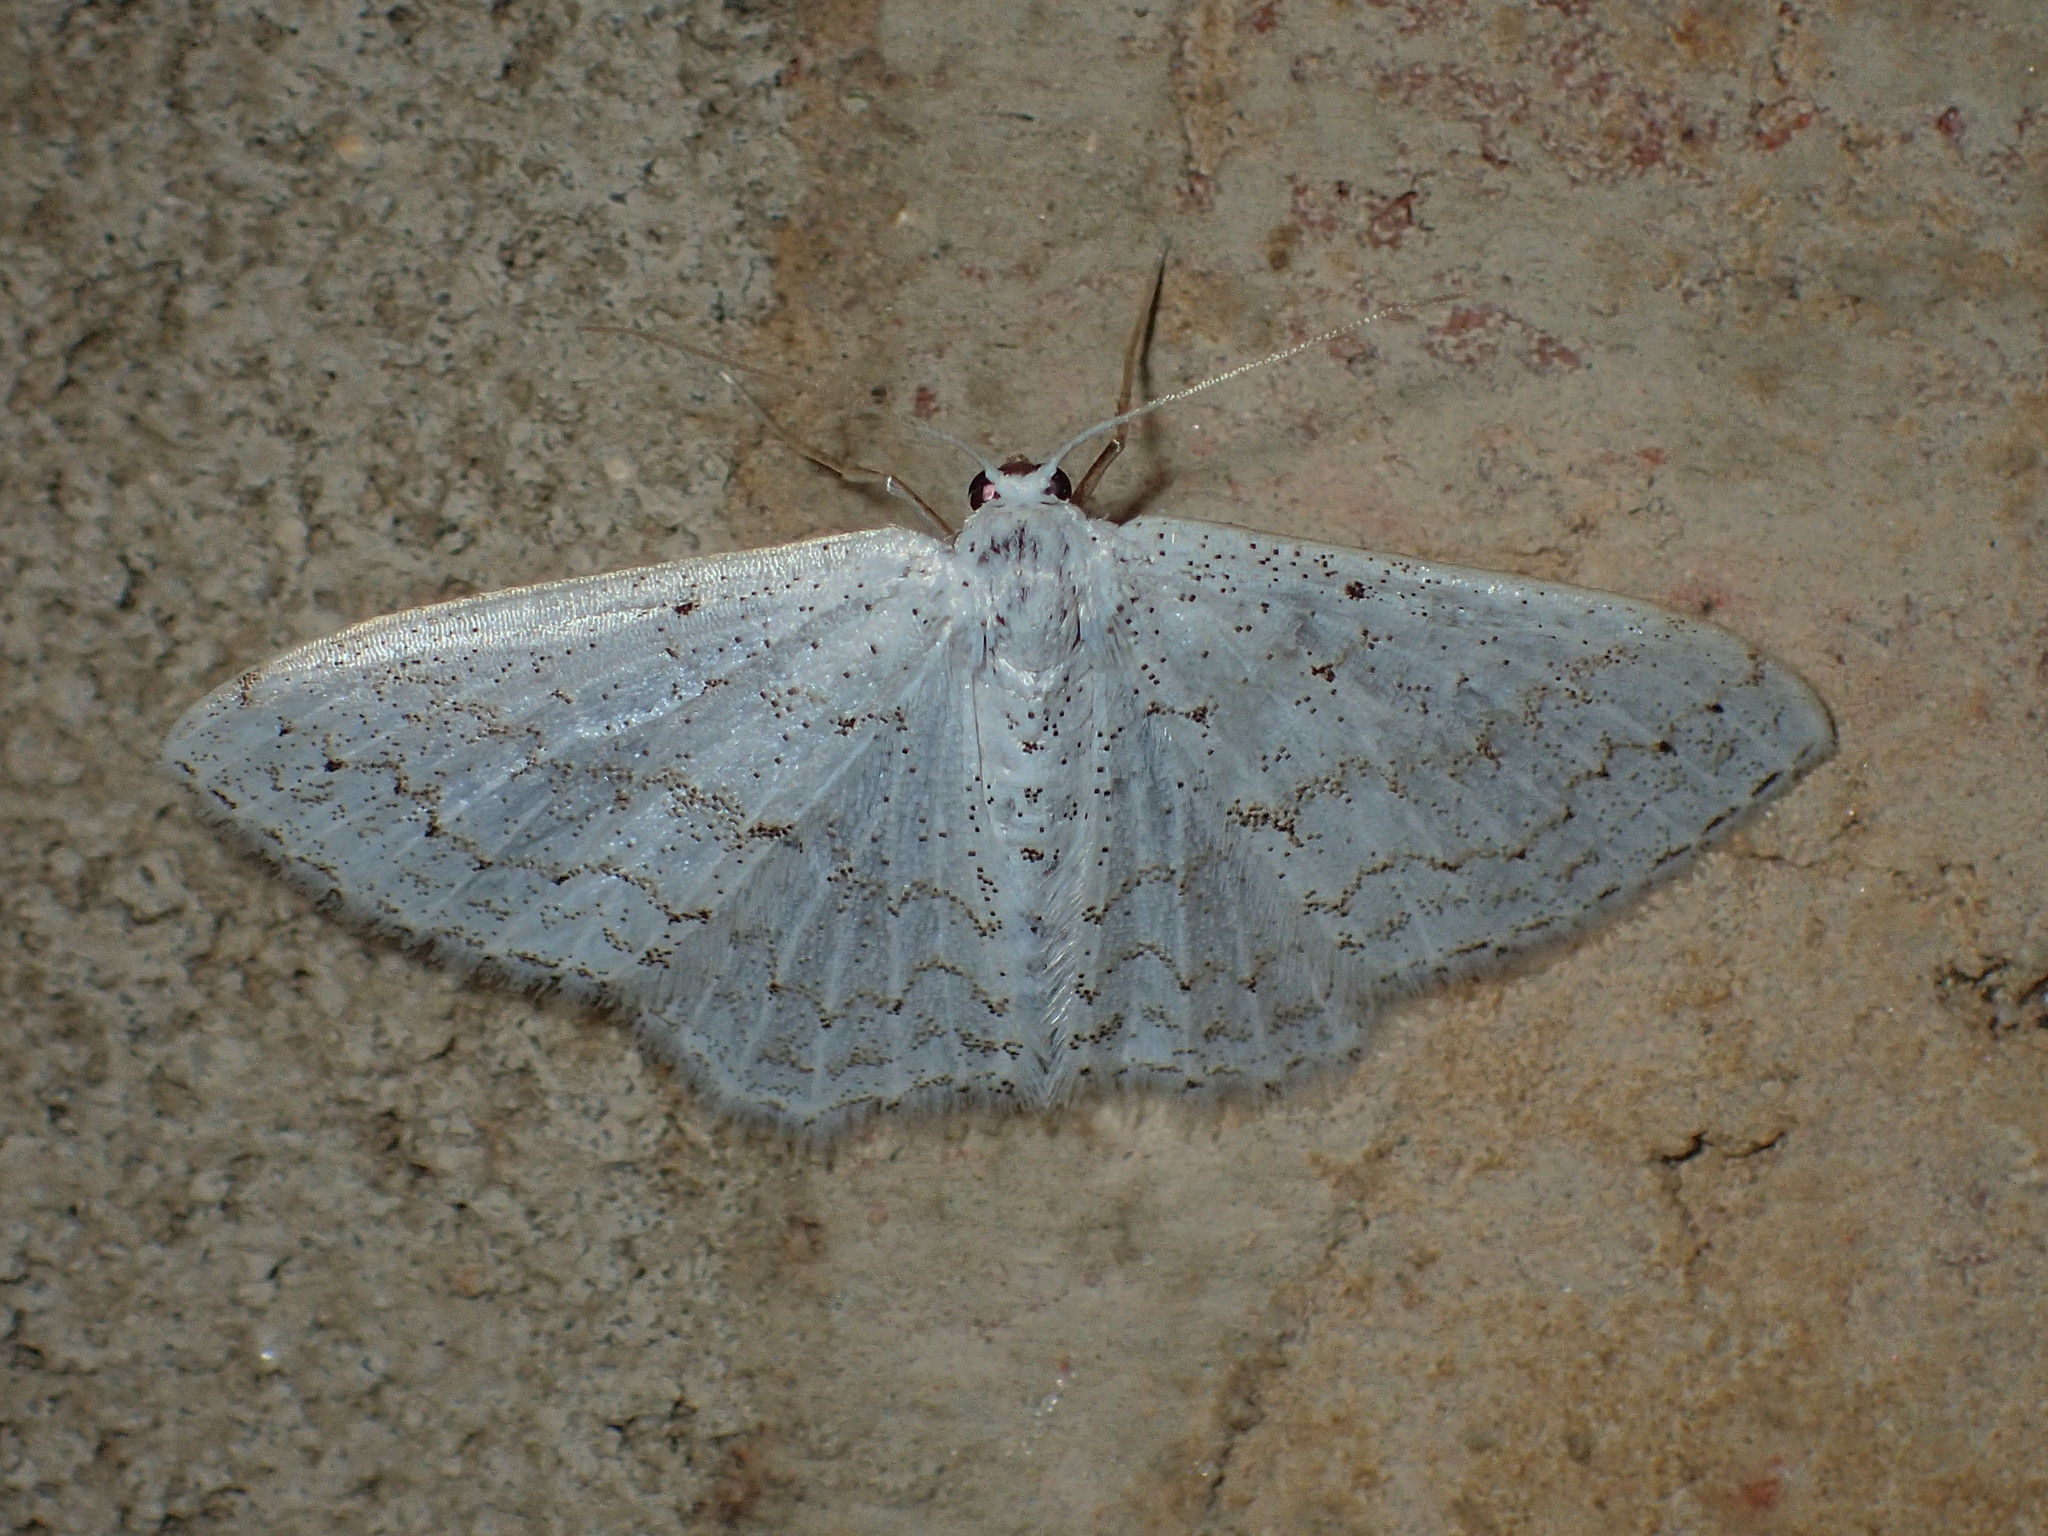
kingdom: Animalia
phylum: Arthropoda
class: Insecta
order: Lepidoptera
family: Geometridae
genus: Idaea
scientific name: Idaea tacturata
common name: Dot-lined wave
